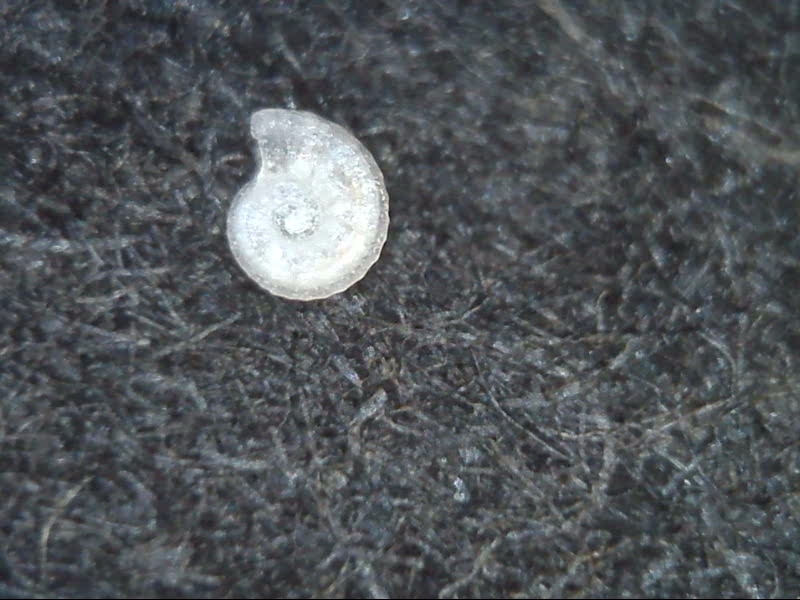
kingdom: Animalia
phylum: Mollusca
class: Gastropoda
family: Orbitestellidae
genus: Orbitestella
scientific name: Orbitestella bermudezi
